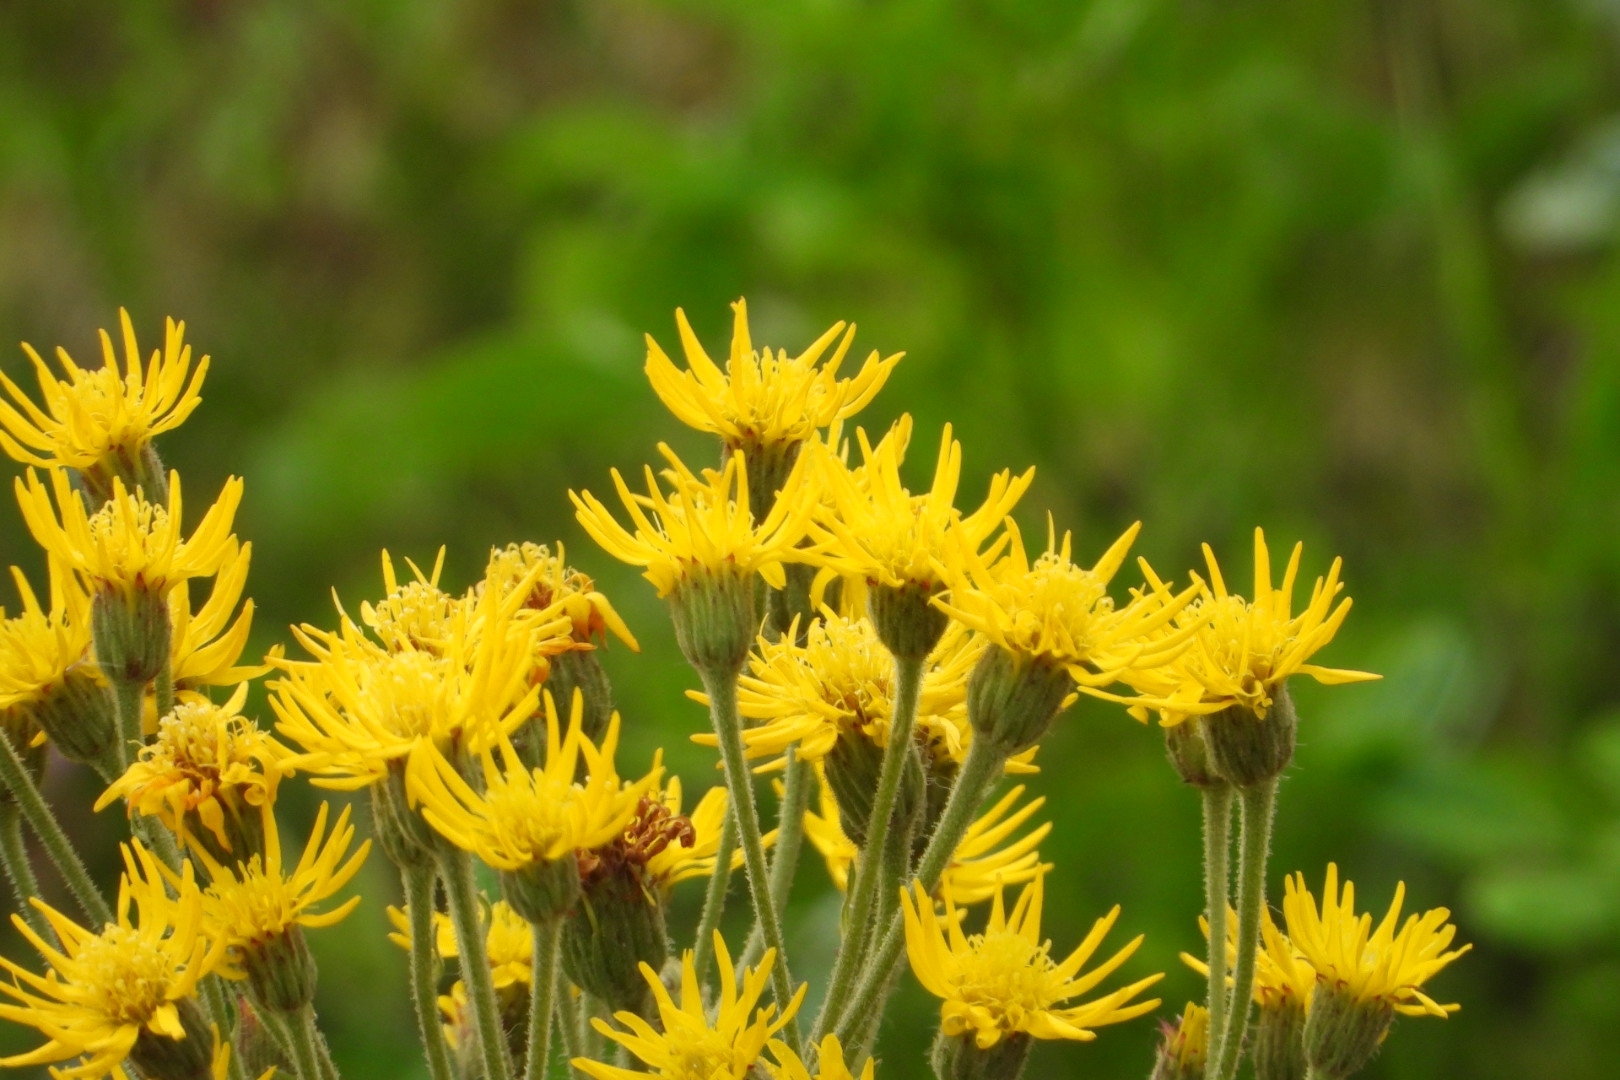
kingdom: Plantae
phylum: Tracheophyta
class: Magnoliopsida
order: Asterales
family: Asteraceae
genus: Heterotheca
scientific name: Heterotheca grandiflora
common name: Telegraphweed
